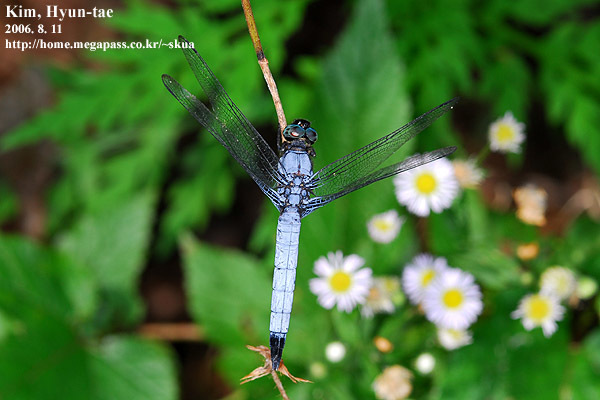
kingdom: Animalia
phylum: Arthropoda
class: Insecta
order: Odonata
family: Libellulidae
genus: Orthetrum
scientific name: Orthetrum melania
